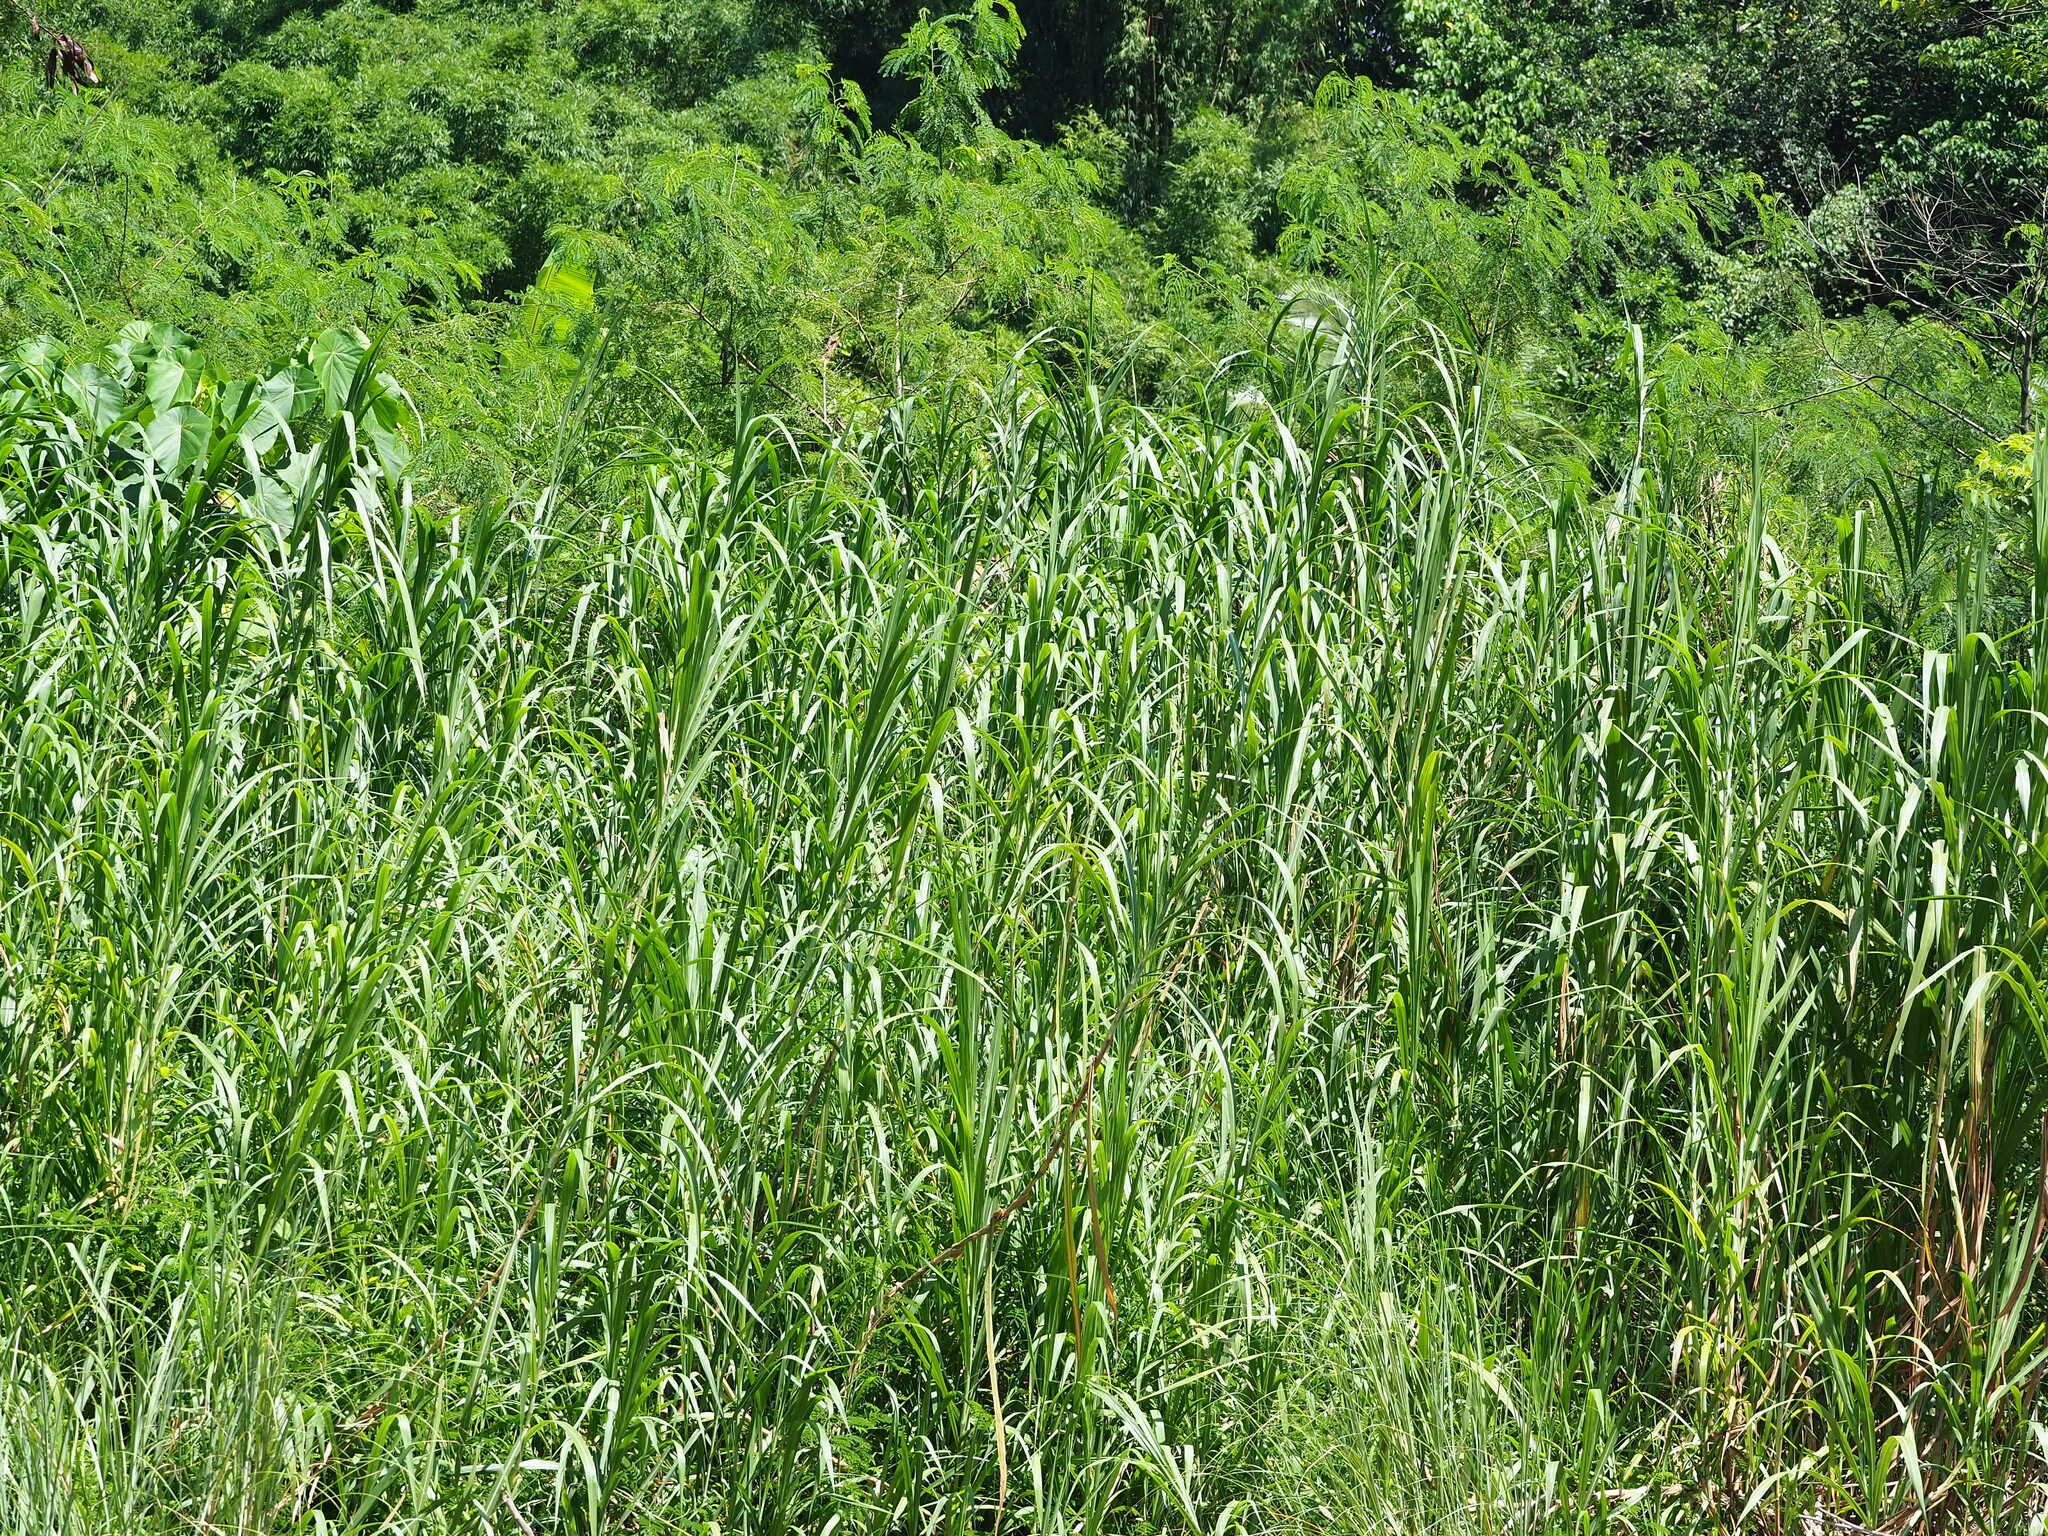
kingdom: Plantae
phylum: Tracheophyta
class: Liliopsida
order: Poales
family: Poaceae
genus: Cenchrus
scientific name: Cenchrus purpureus
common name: Elephant grass
